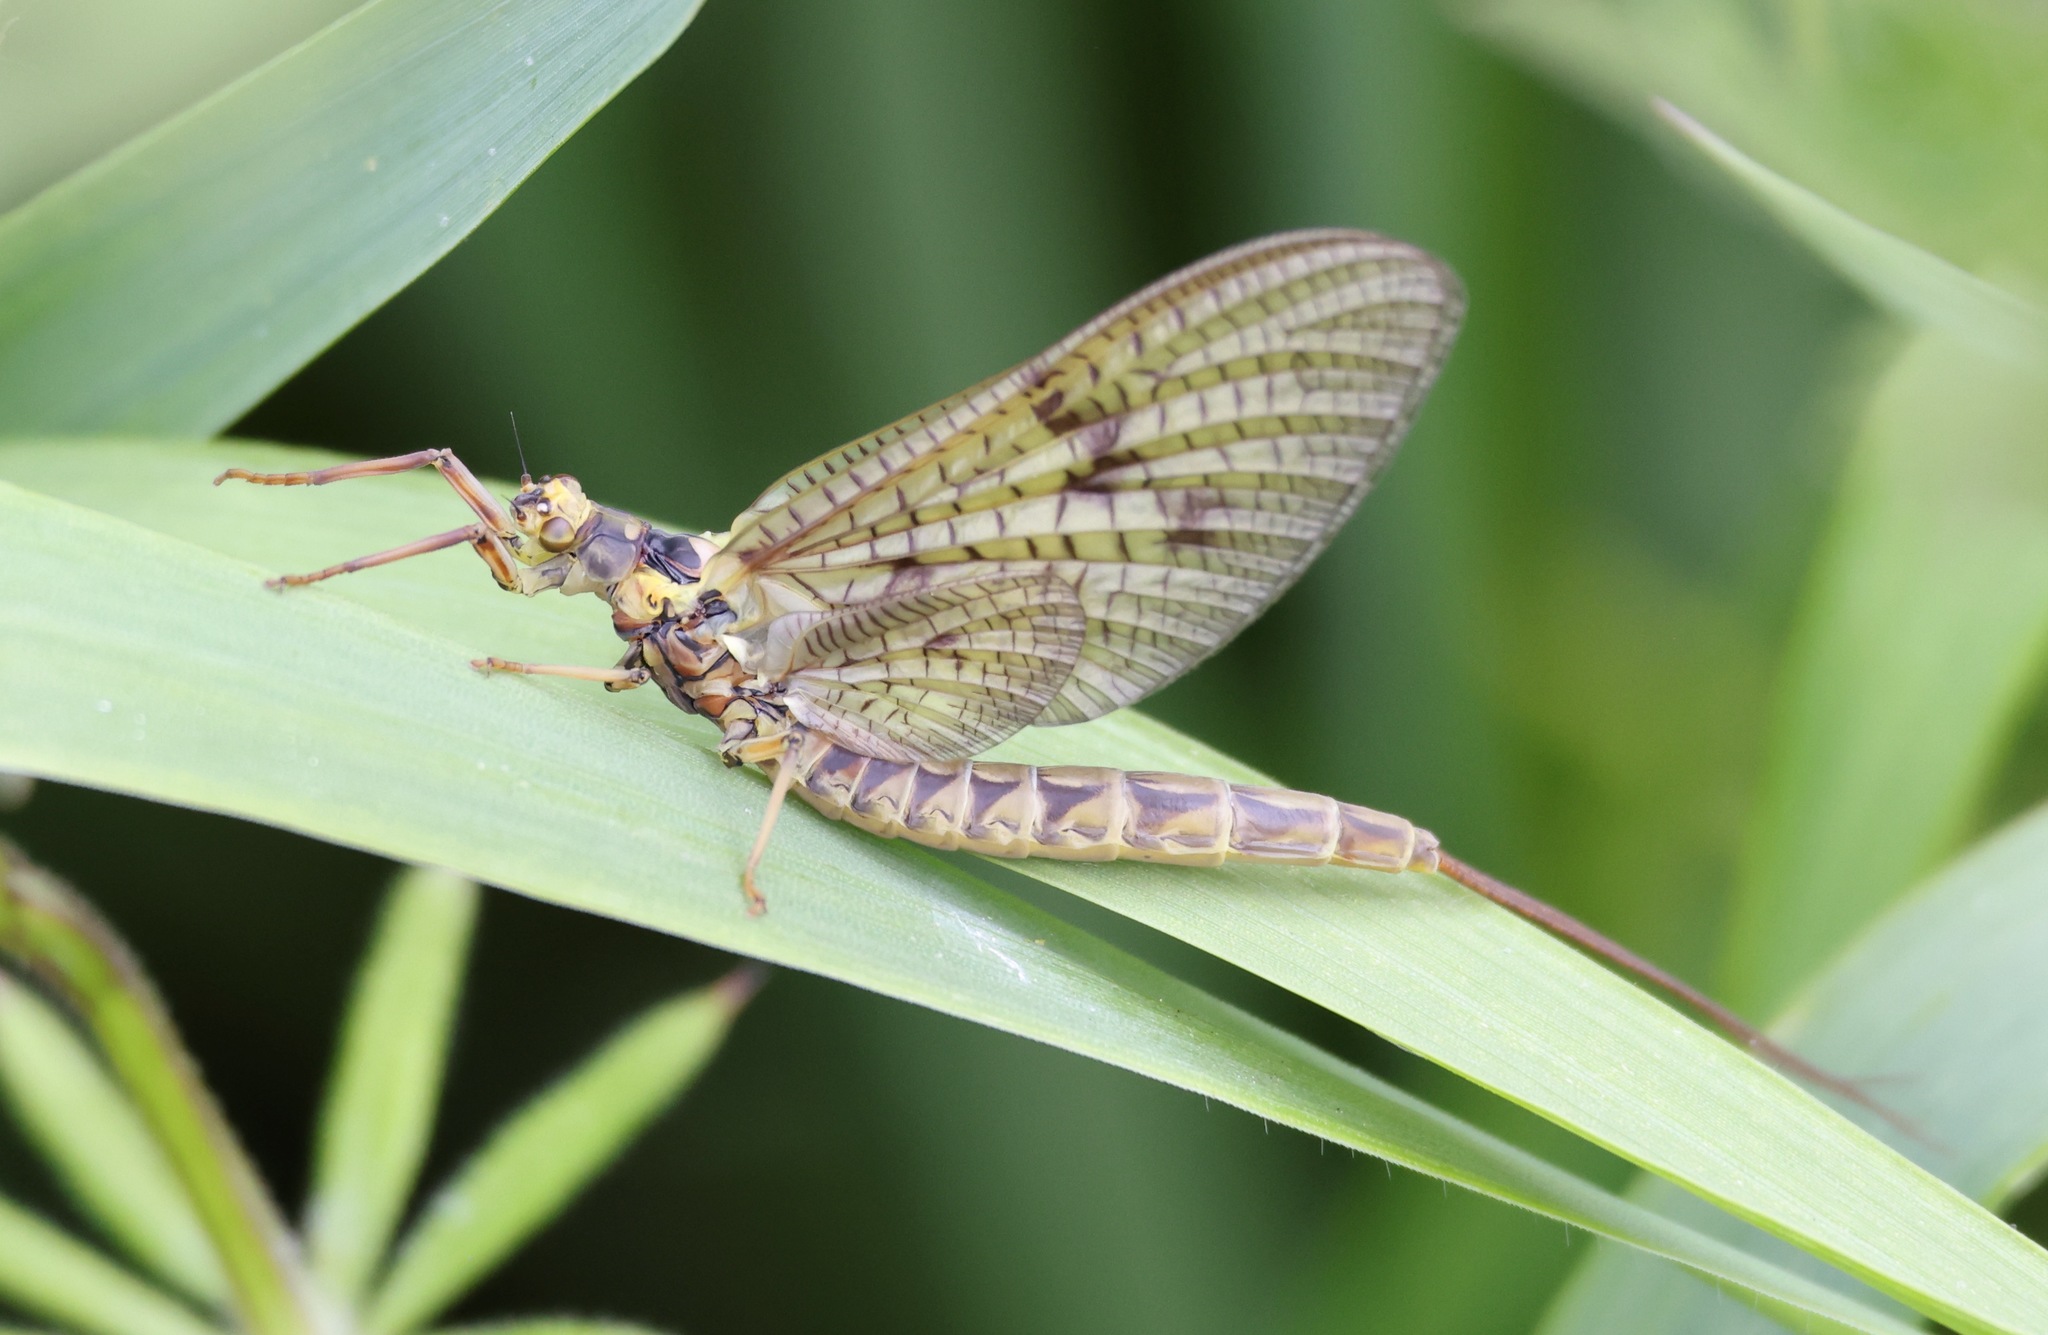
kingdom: Animalia
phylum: Arthropoda
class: Insecta
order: Ephemeroptera
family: Ephemeridae
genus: Ephemera
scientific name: Ephemera vulgata
